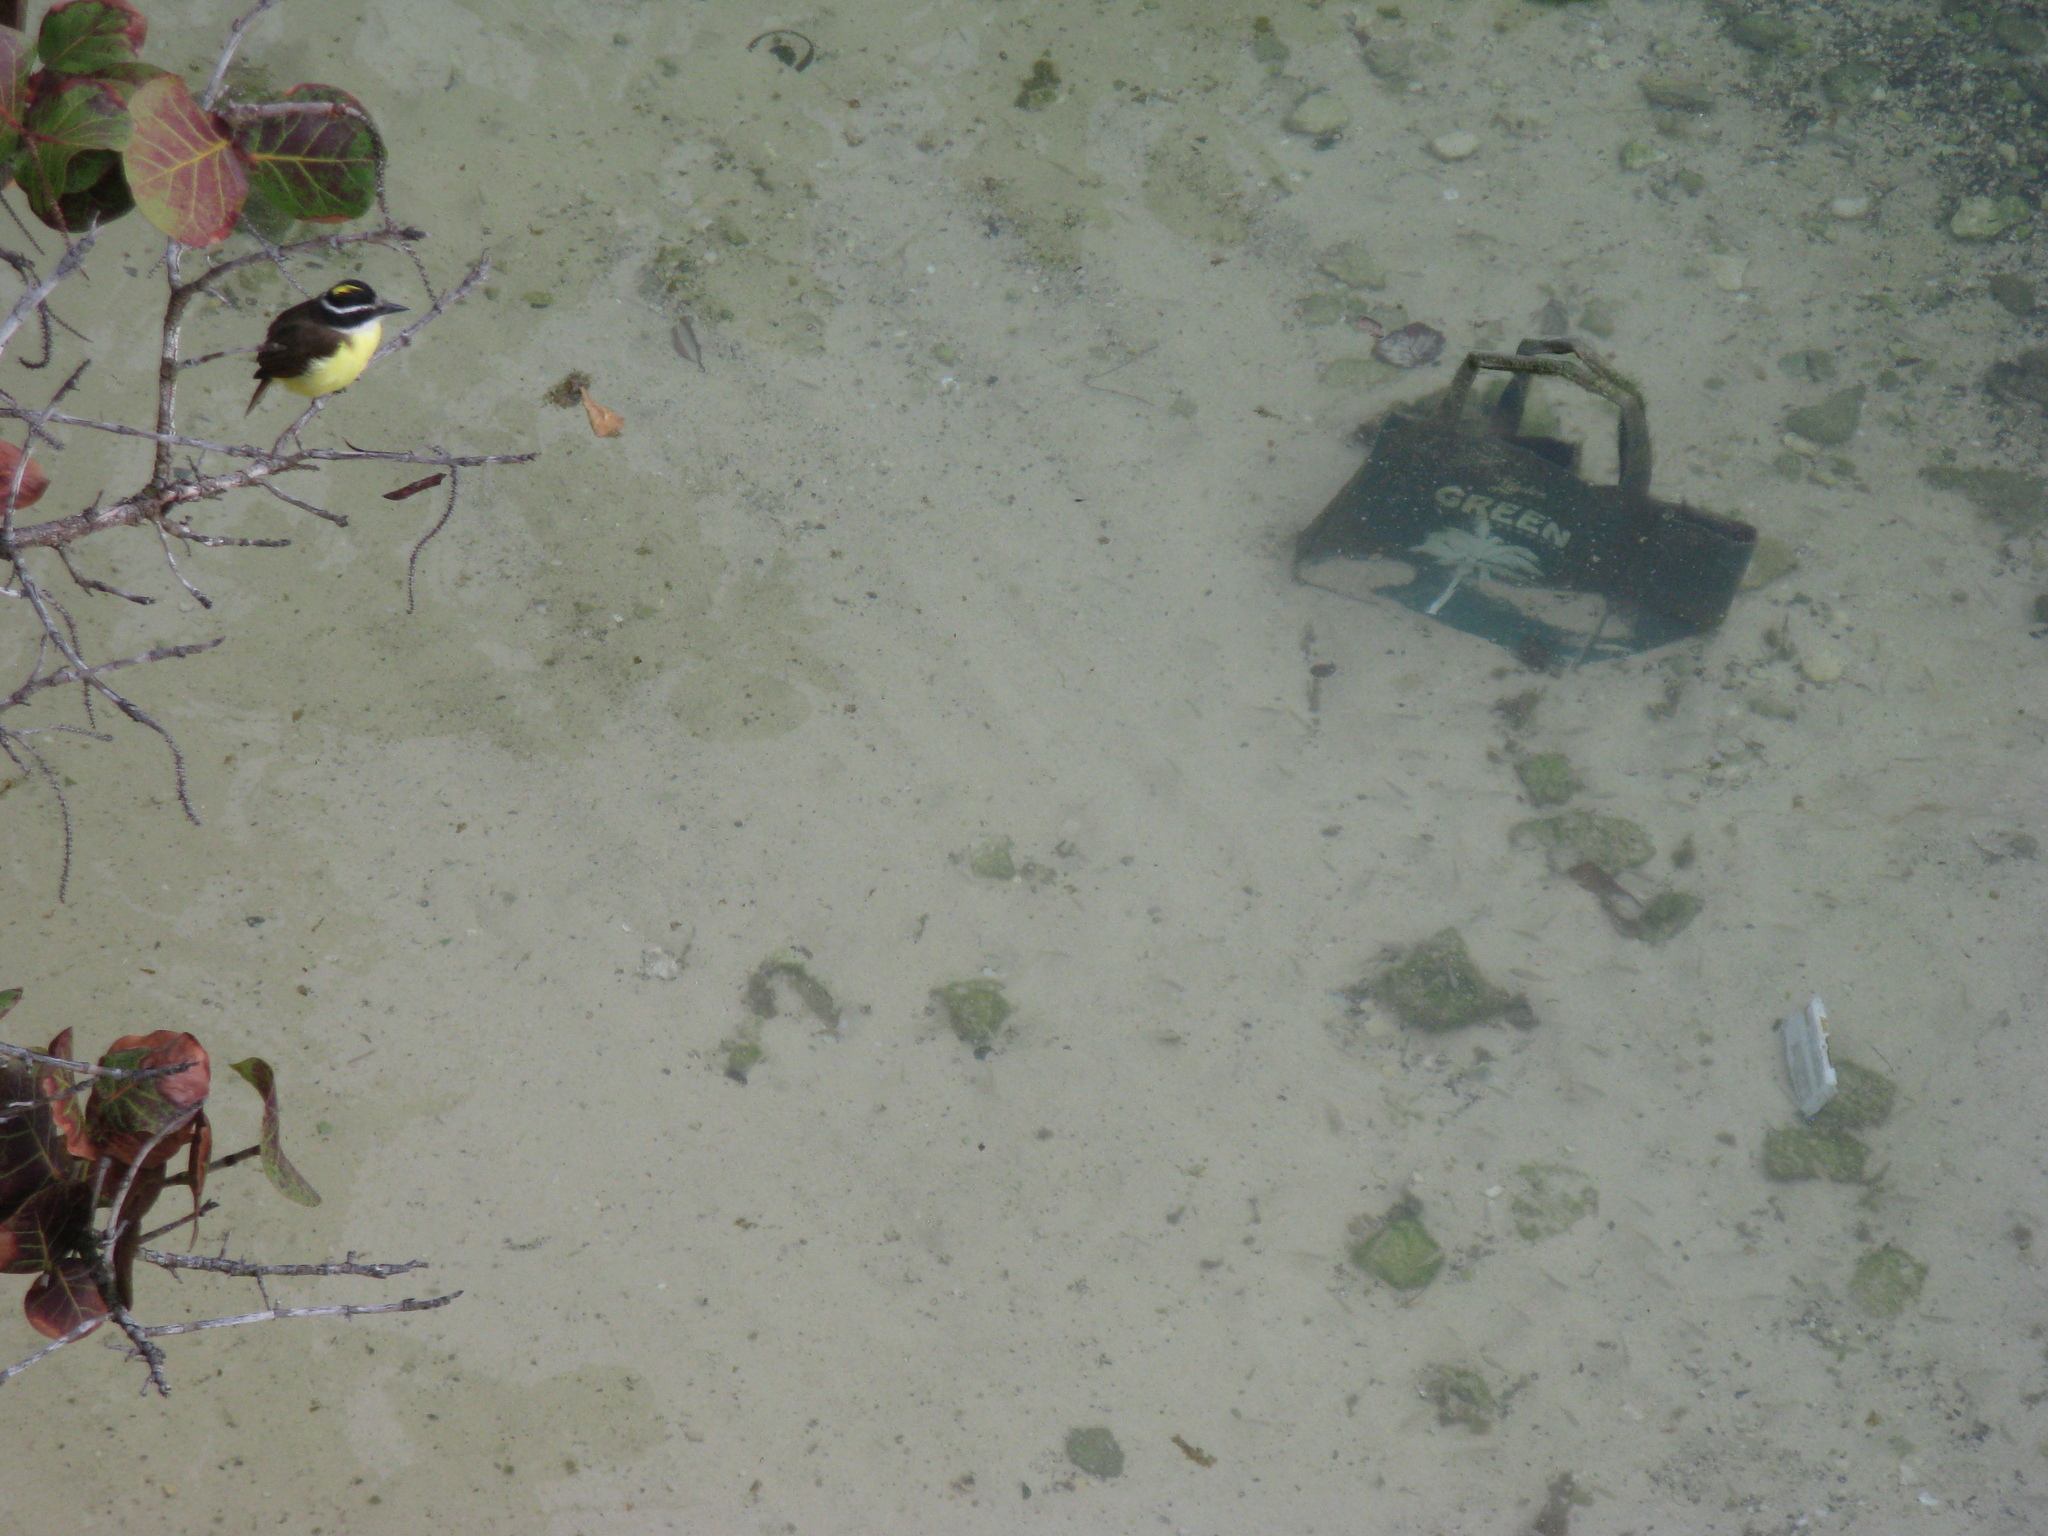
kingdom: Animalia
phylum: Chordata
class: Aves
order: Passeriformes
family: Tyrannidae
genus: Pitangus
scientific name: Pitangus sulphuratus
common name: Great kiskadee
